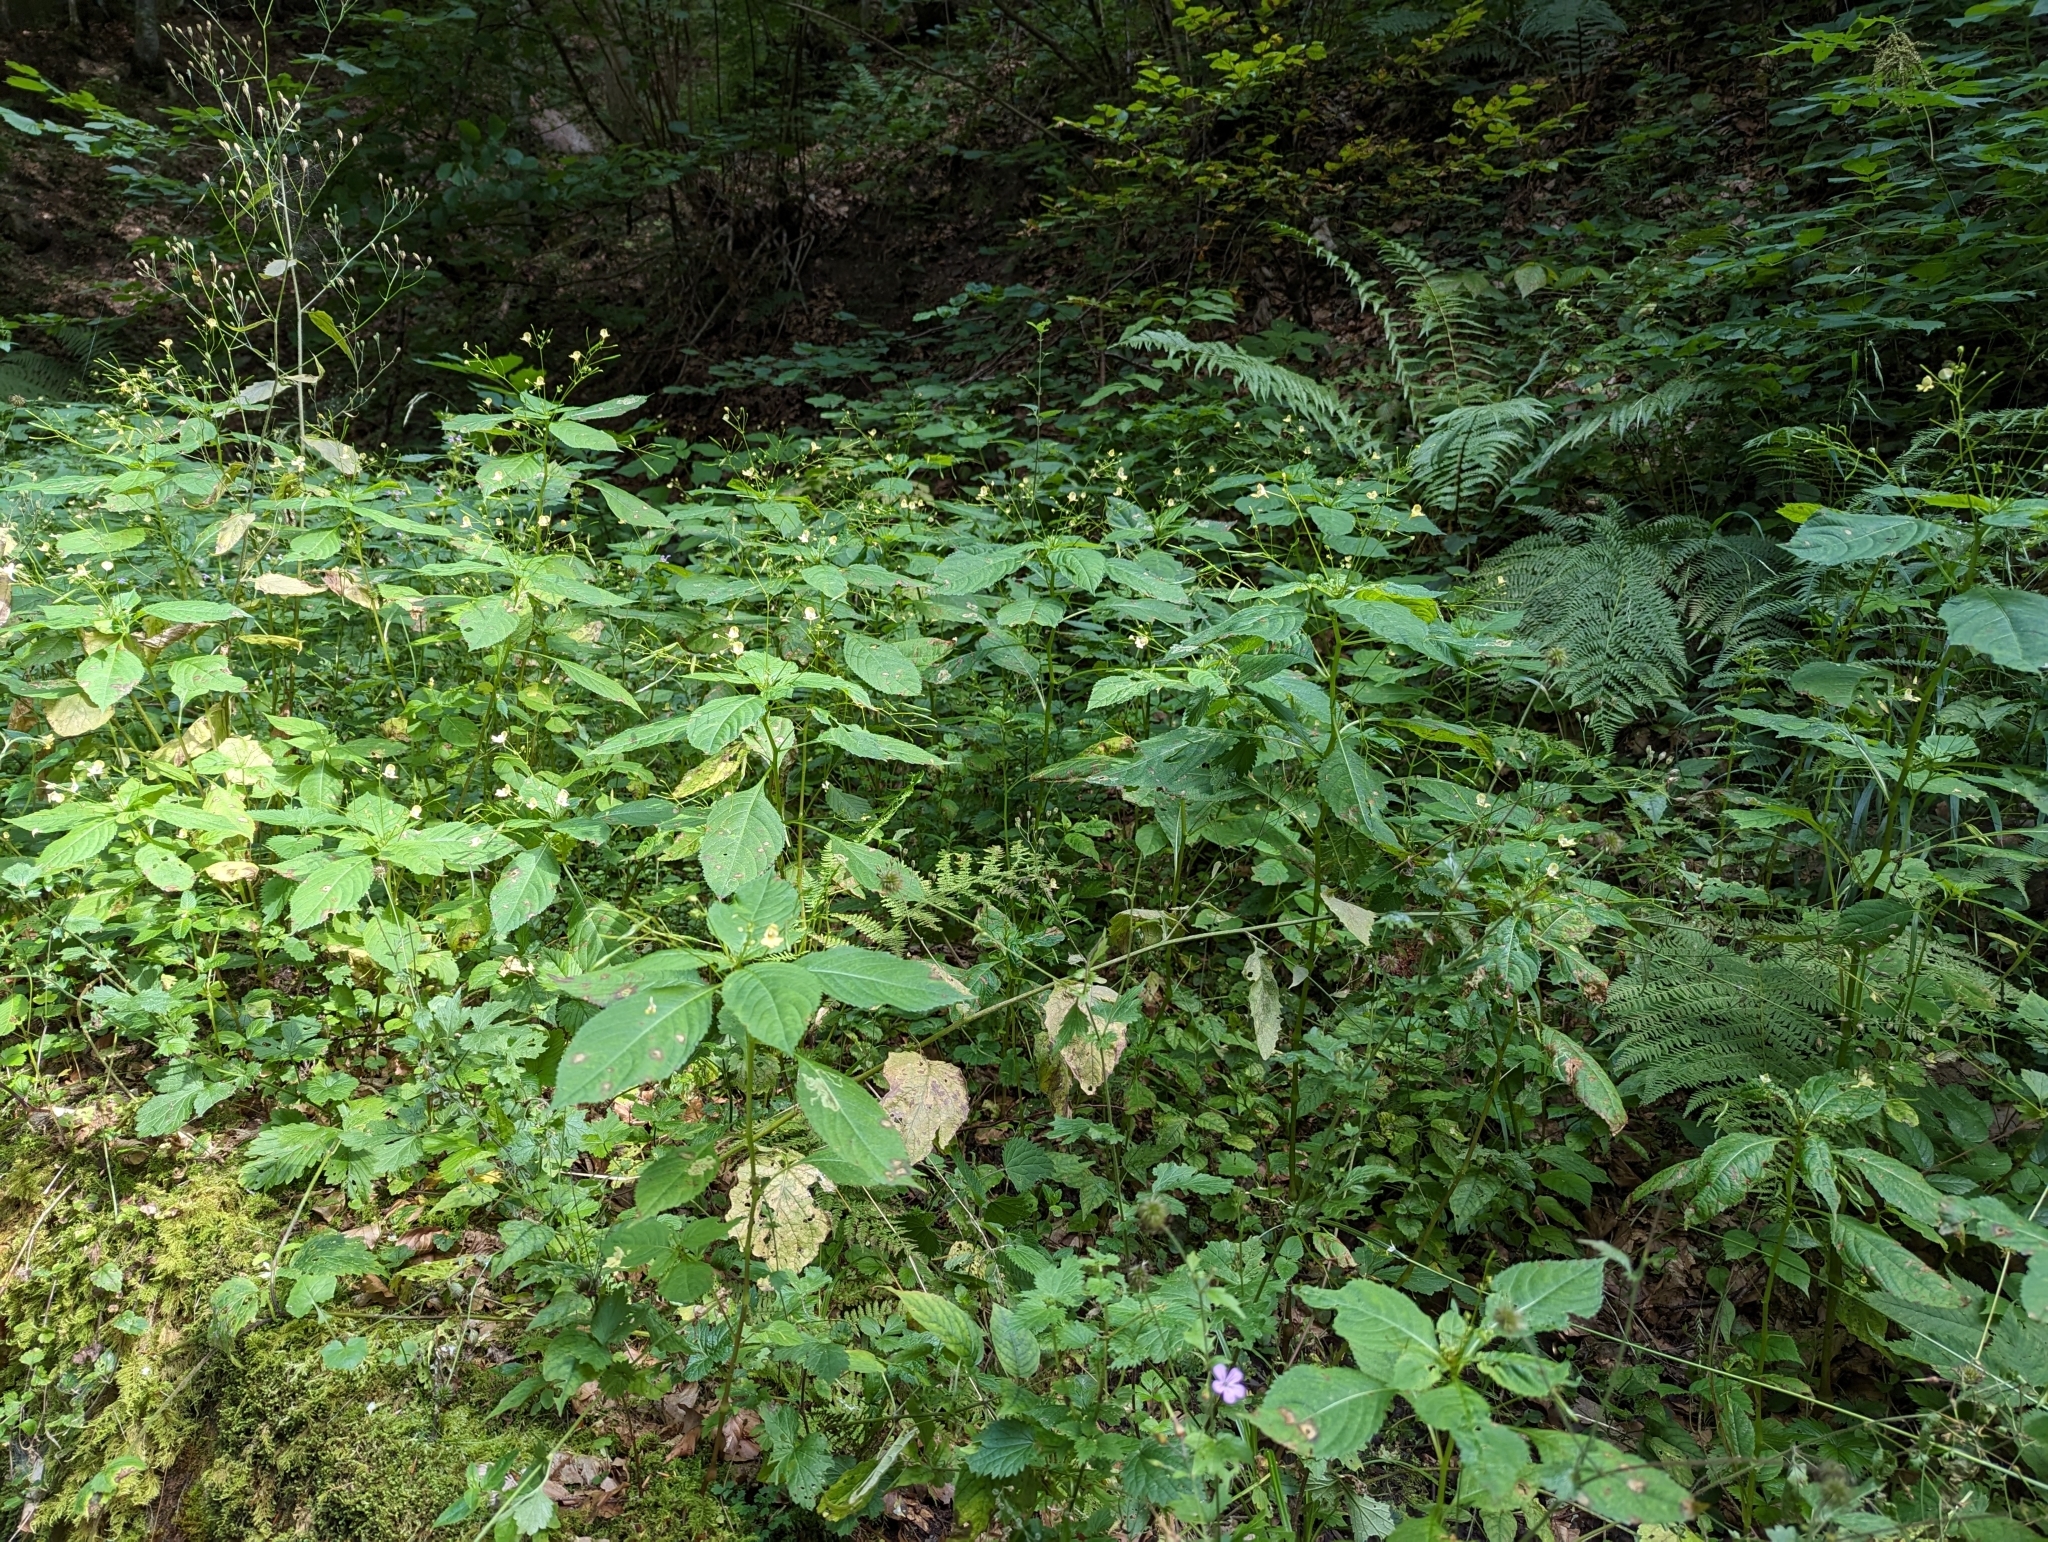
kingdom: Plantae
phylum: Tracheophyta
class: Magnoliopsida
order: Ericales
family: Balsaminaceae
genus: Impatiens
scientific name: Impatiens parviflora
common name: Small balsam
